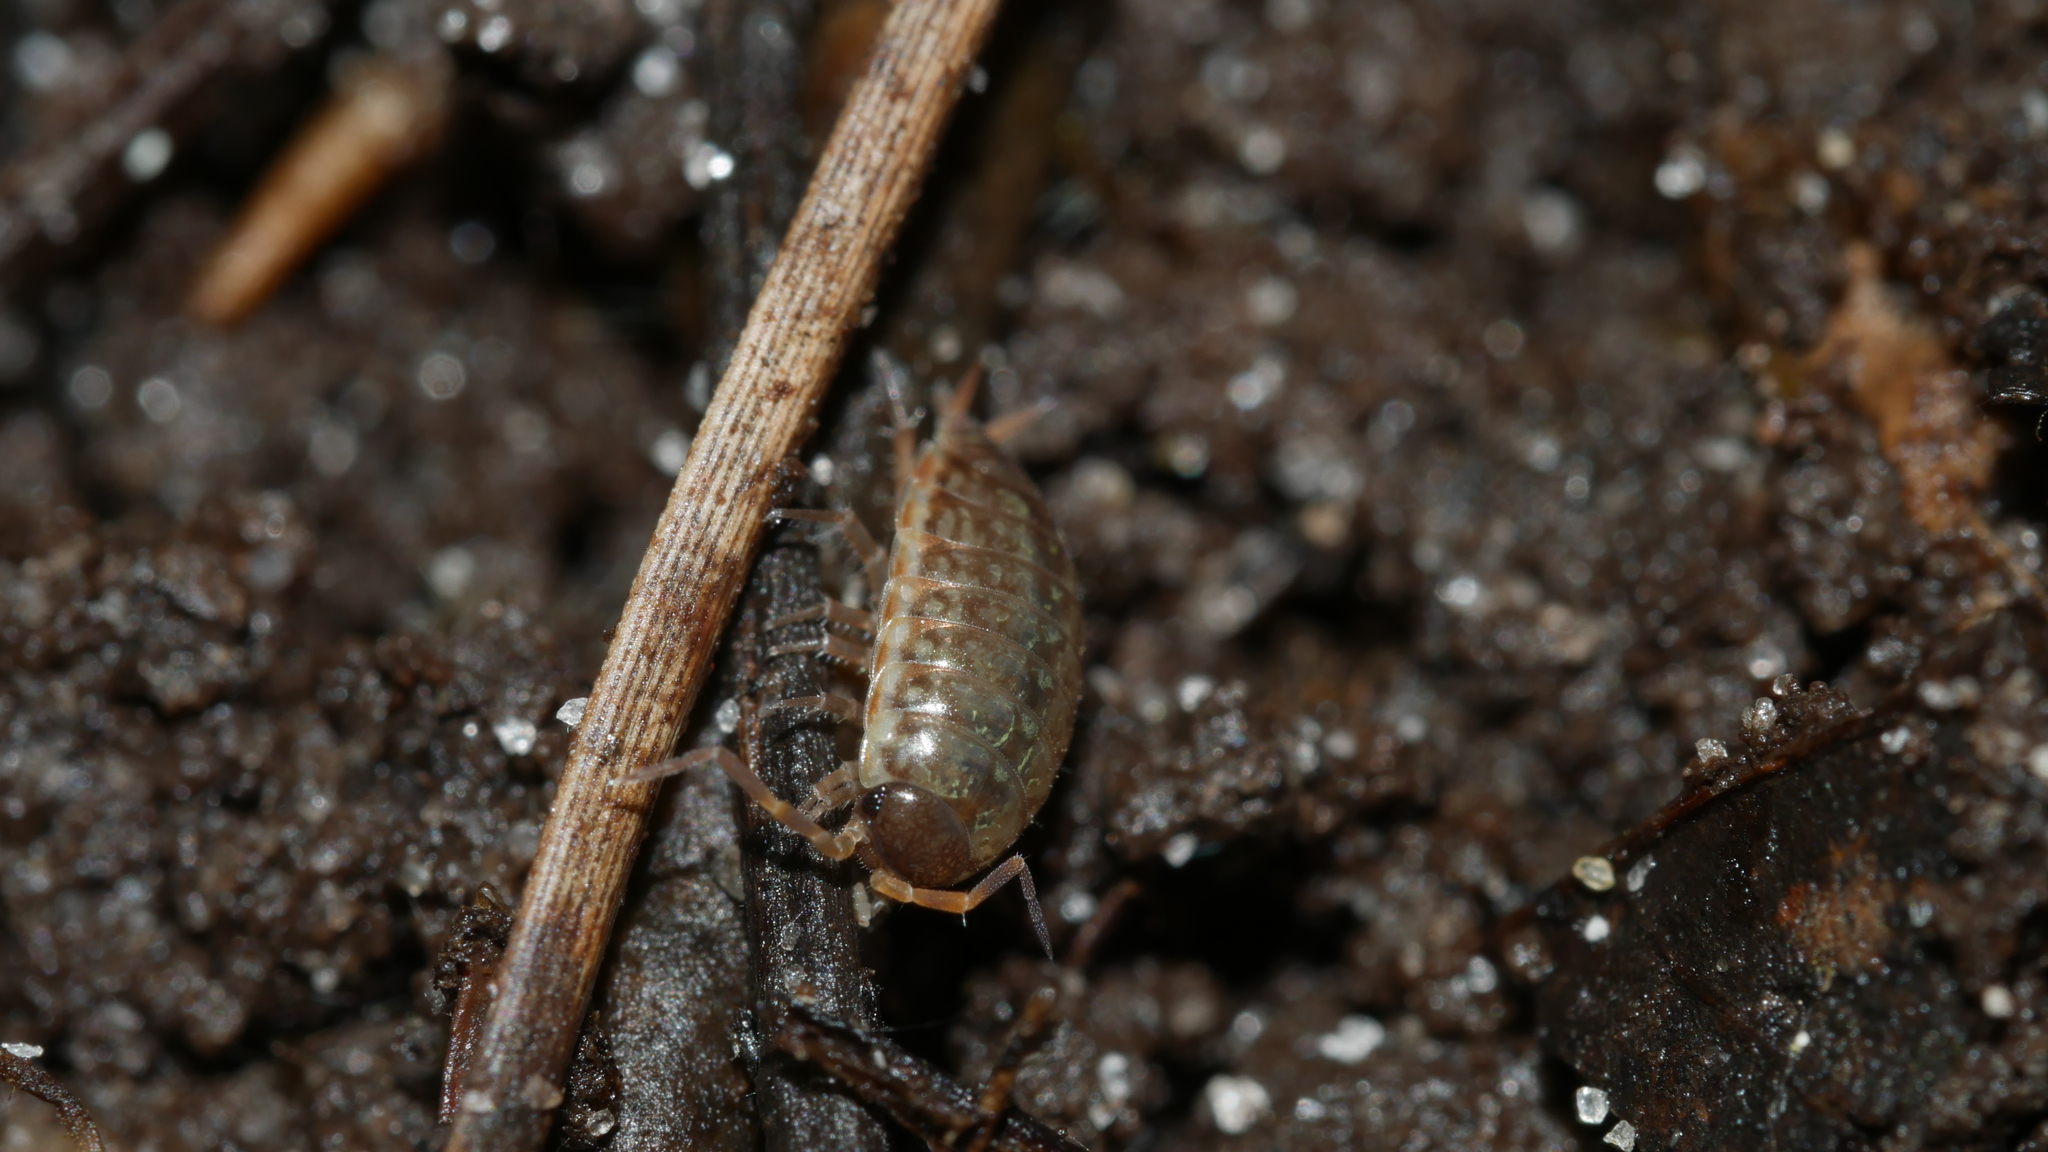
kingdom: Animalia
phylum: Arthropoda
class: Malacostraca
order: Isopoda
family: Philosciidae
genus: Philoscia
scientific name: Philoscia muscorum
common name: Common striped woodlouse
